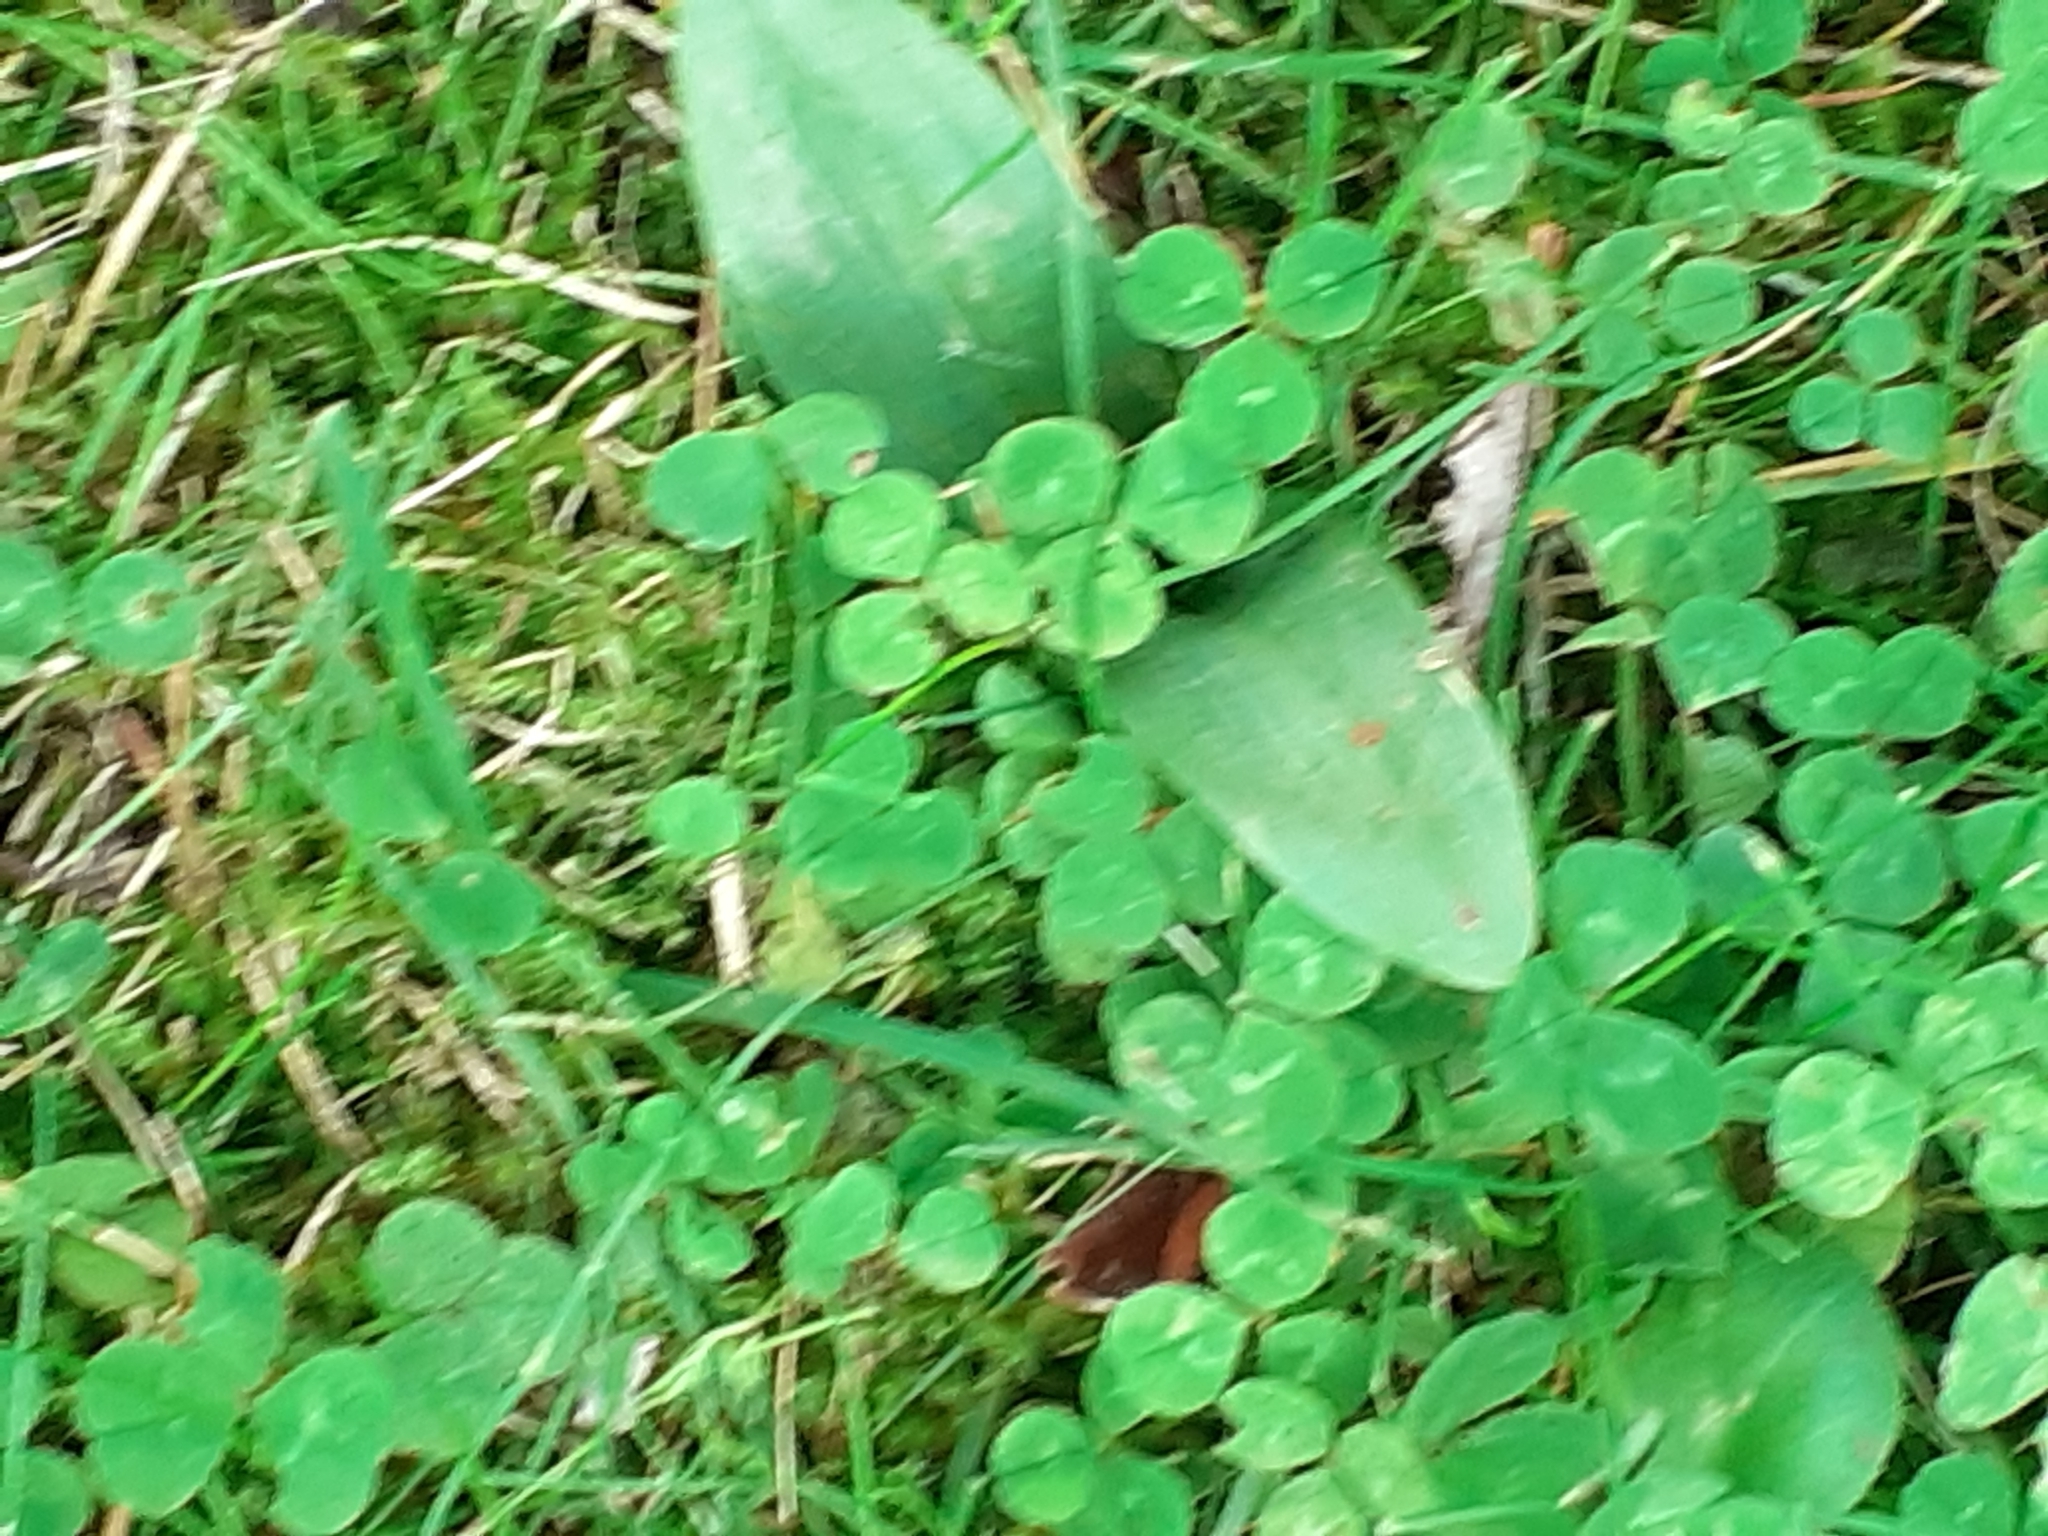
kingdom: Plantae
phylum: Tracheophyta
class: Liliopsida
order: Asparagales
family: Orchidaceae
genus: Ophrys
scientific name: Ophrys apifera
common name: Bee orchid
